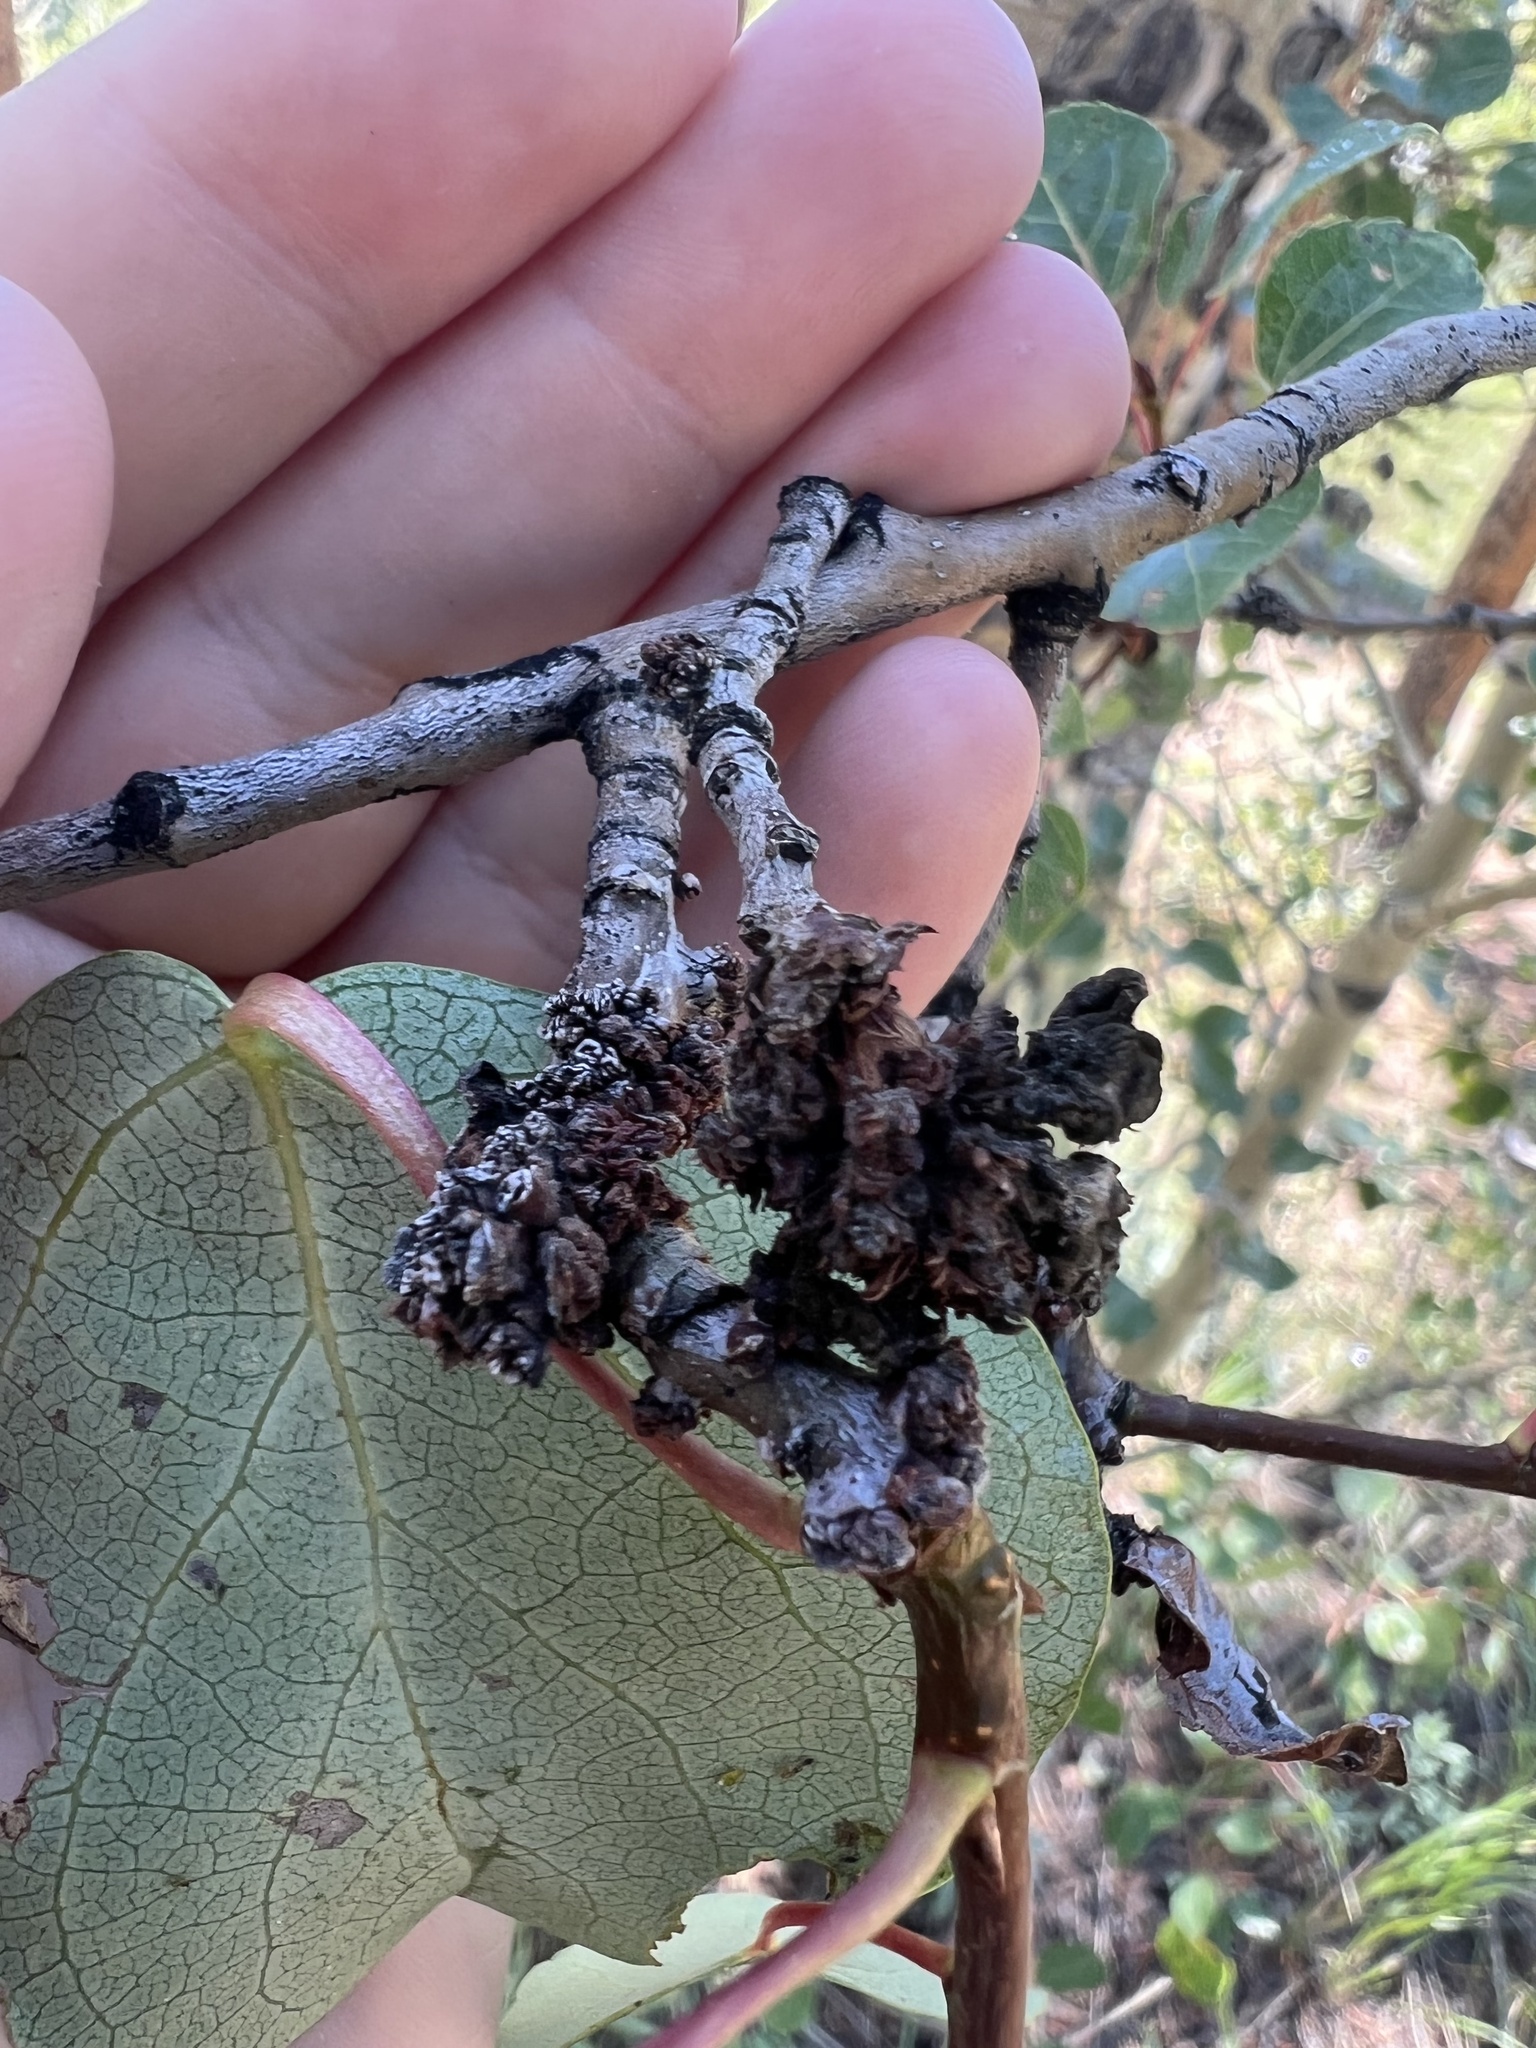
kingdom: Animalia
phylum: Arthropoda
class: Arachnida
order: Trombidiformes
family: Eriophyidae
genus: Aceria
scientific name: Aceria
